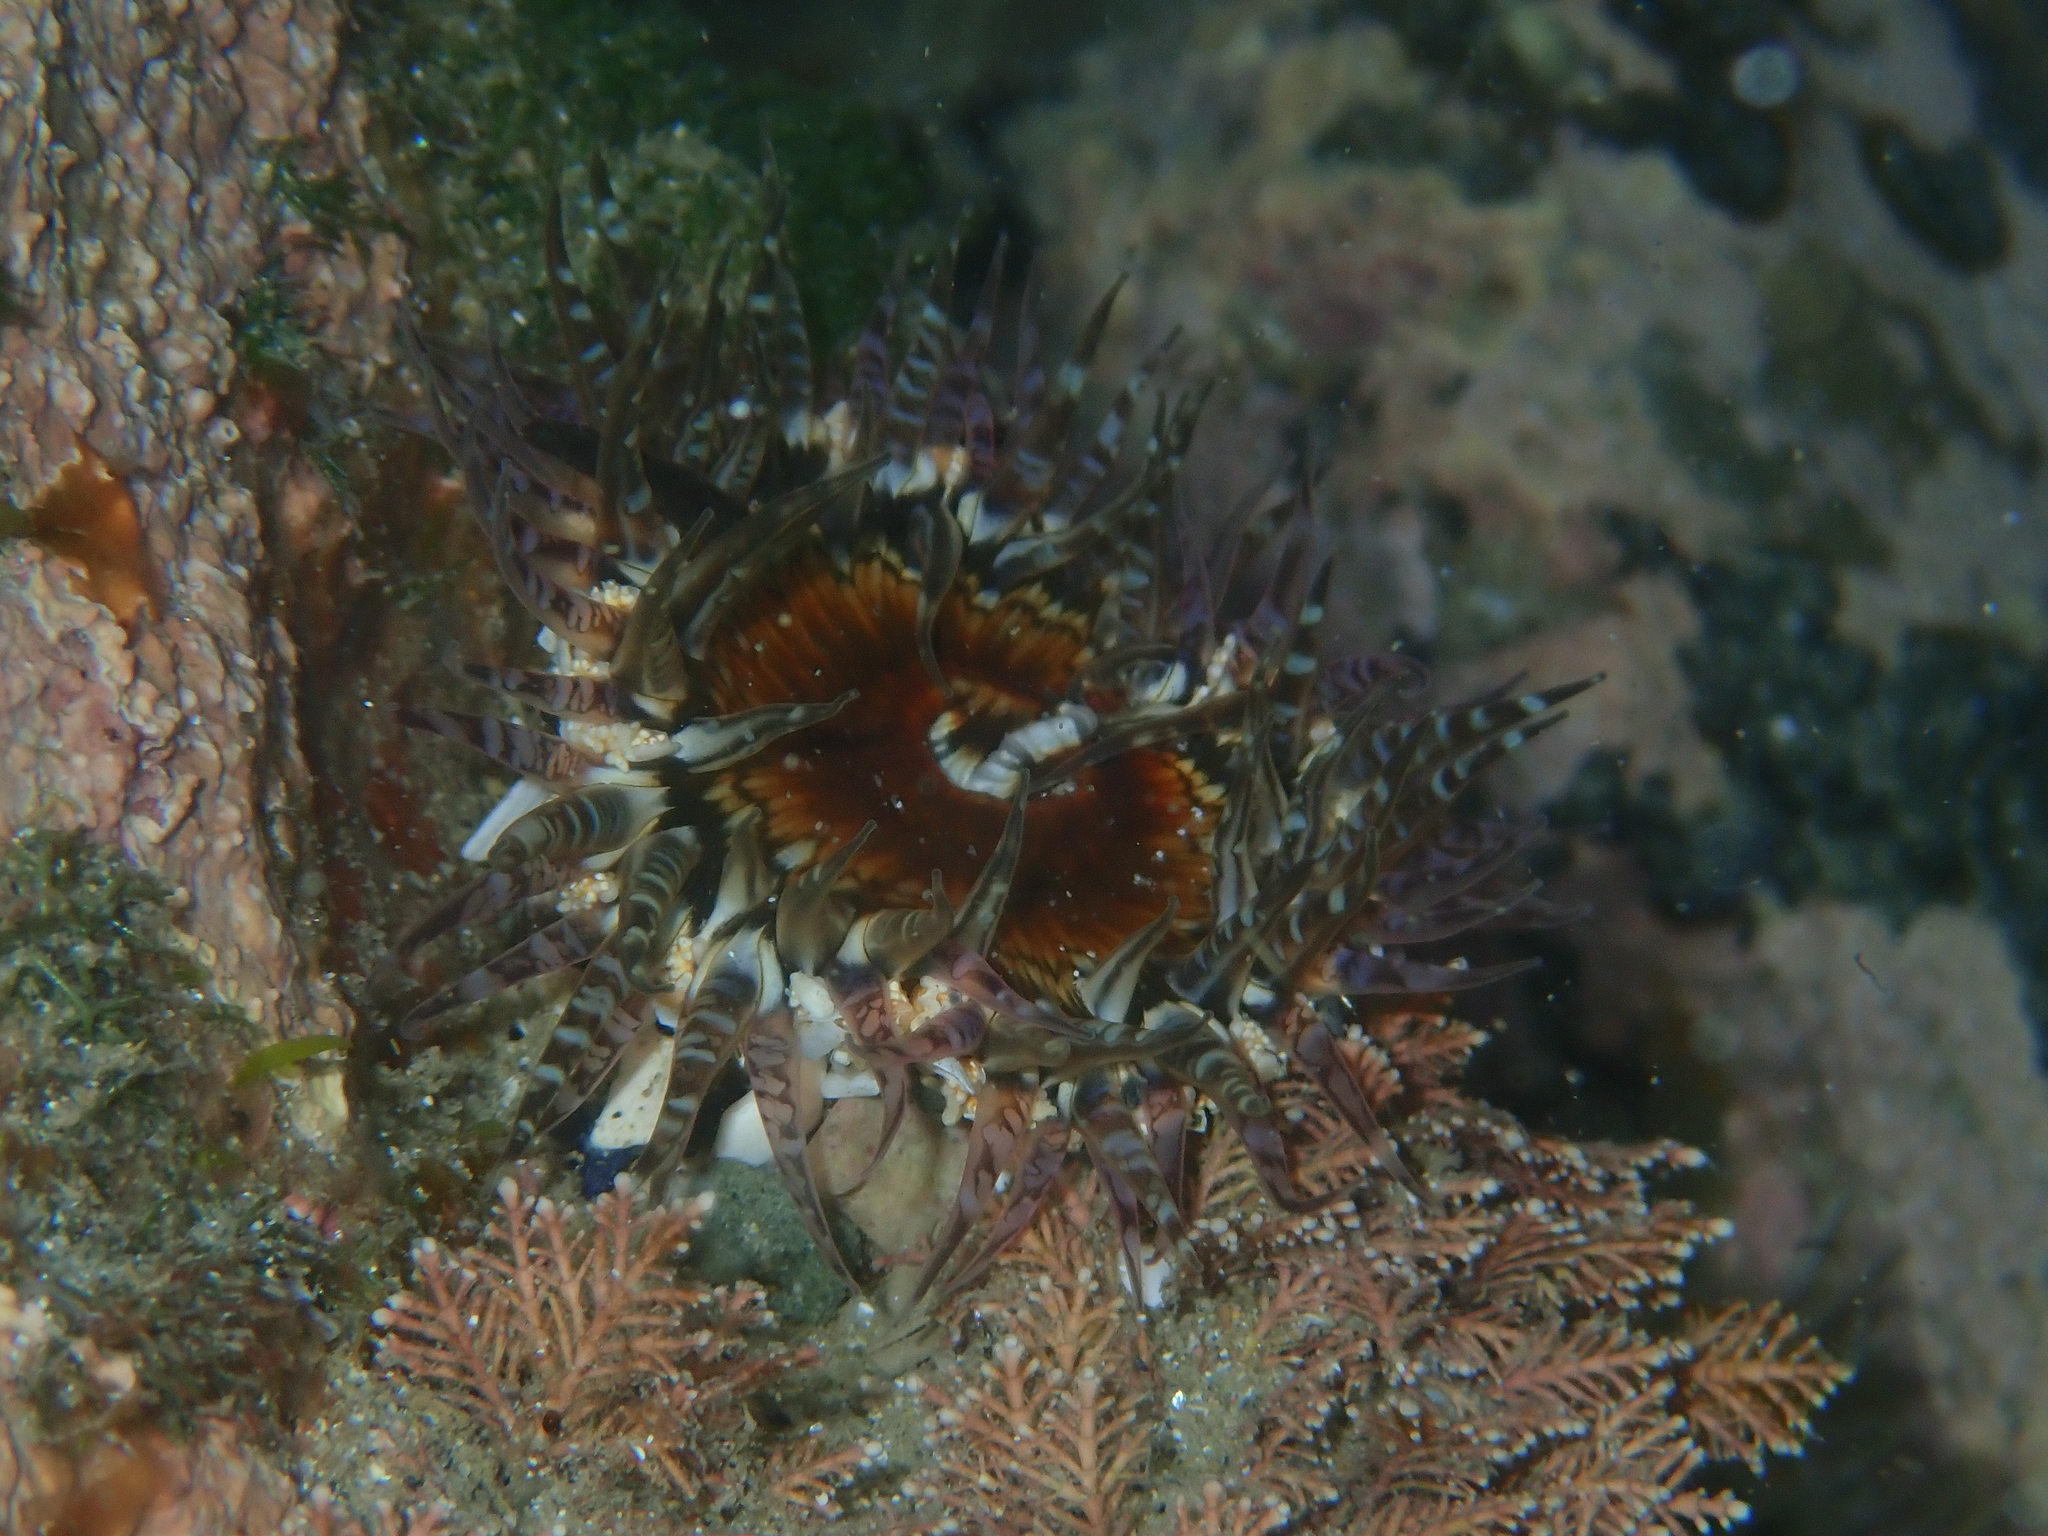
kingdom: Animalia
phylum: Cnidaria
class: Anthozoa
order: Actiniaria
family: Actiniidae
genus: Oulactis
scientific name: Oulactis muscosa
